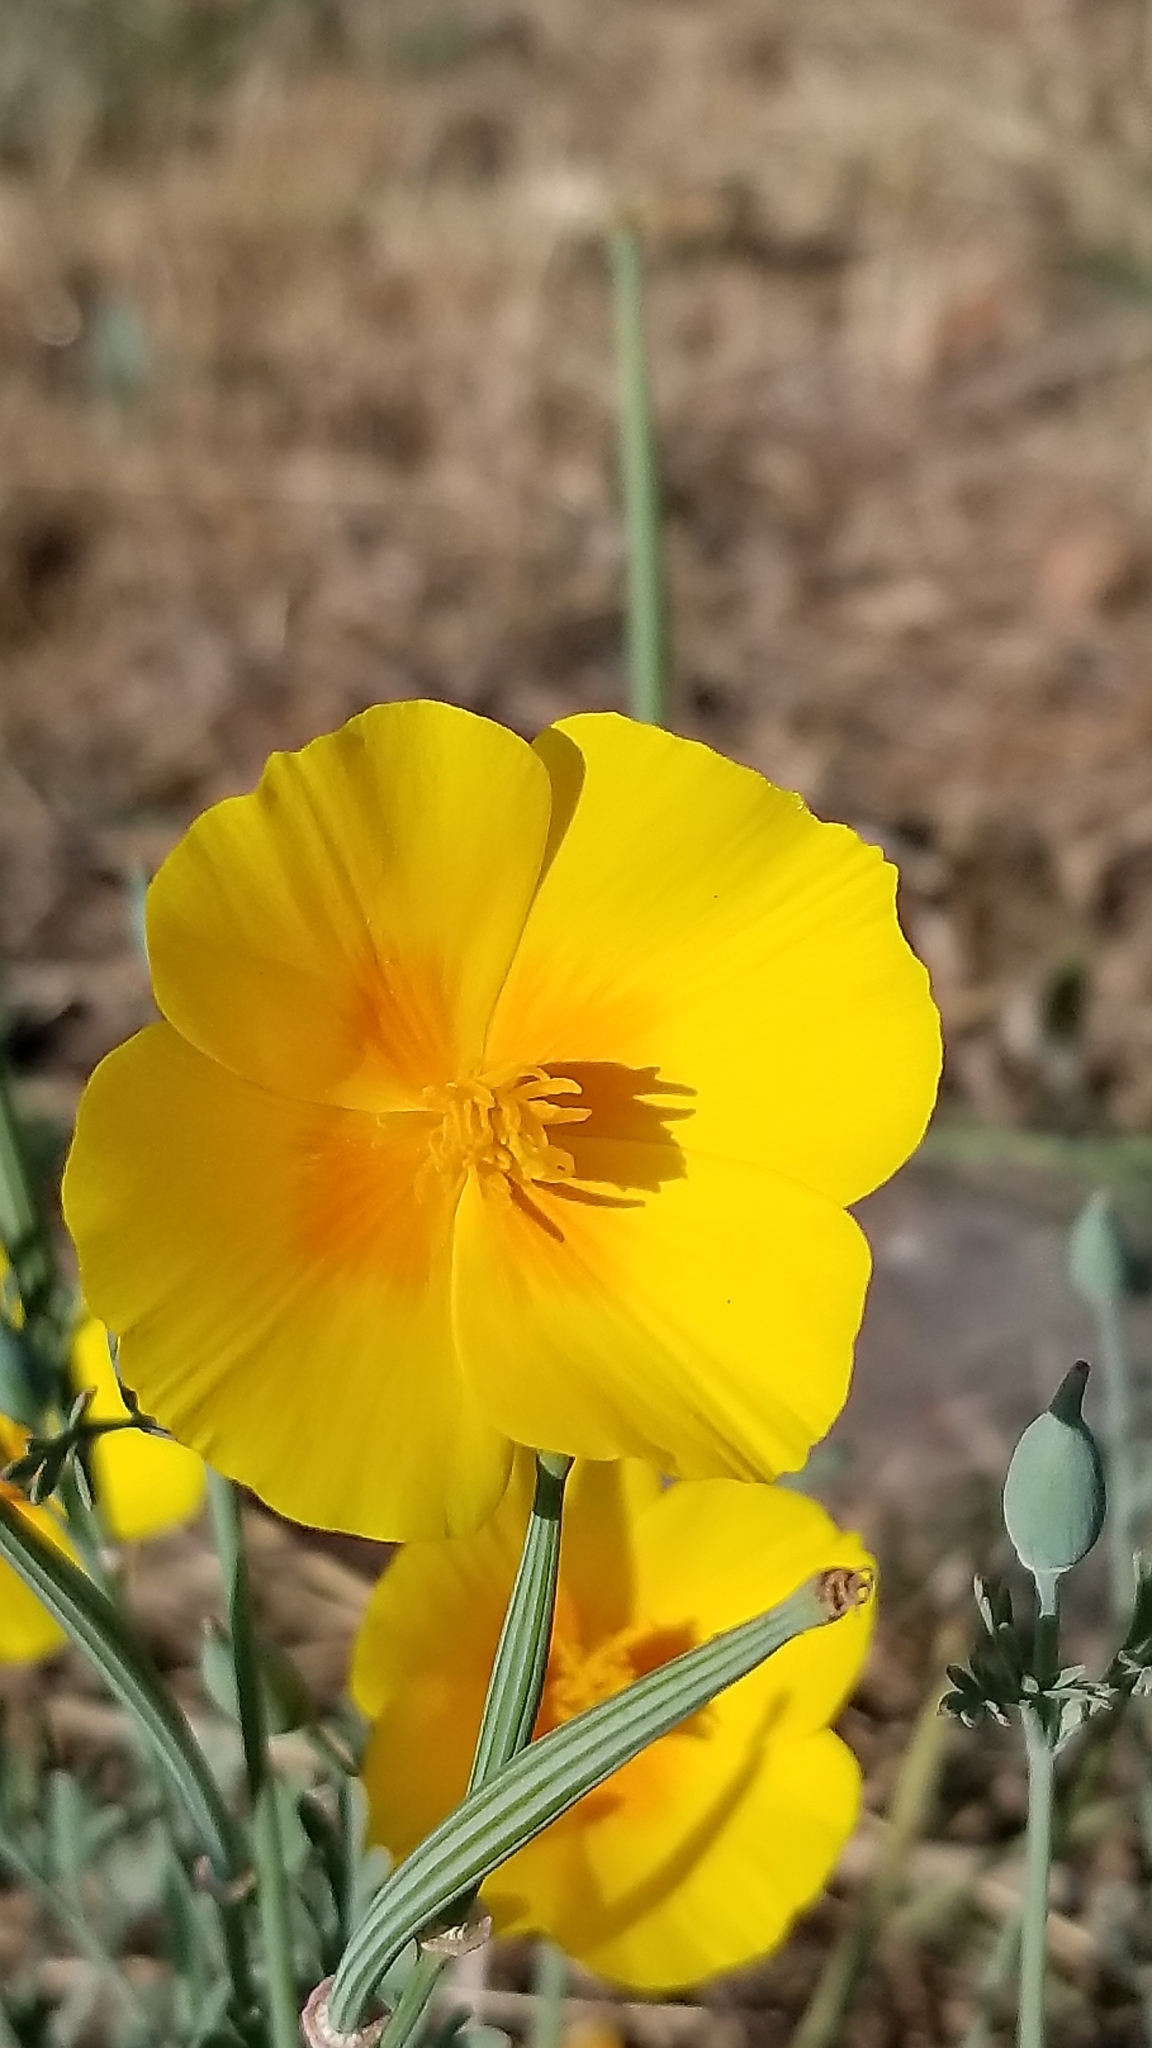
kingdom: Plantae
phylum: Tracheophyta
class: Magnoliopsida
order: Ranunculales
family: Papaveraceae
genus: Eschscholzia
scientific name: Eschscholzia californica
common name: California poppy
